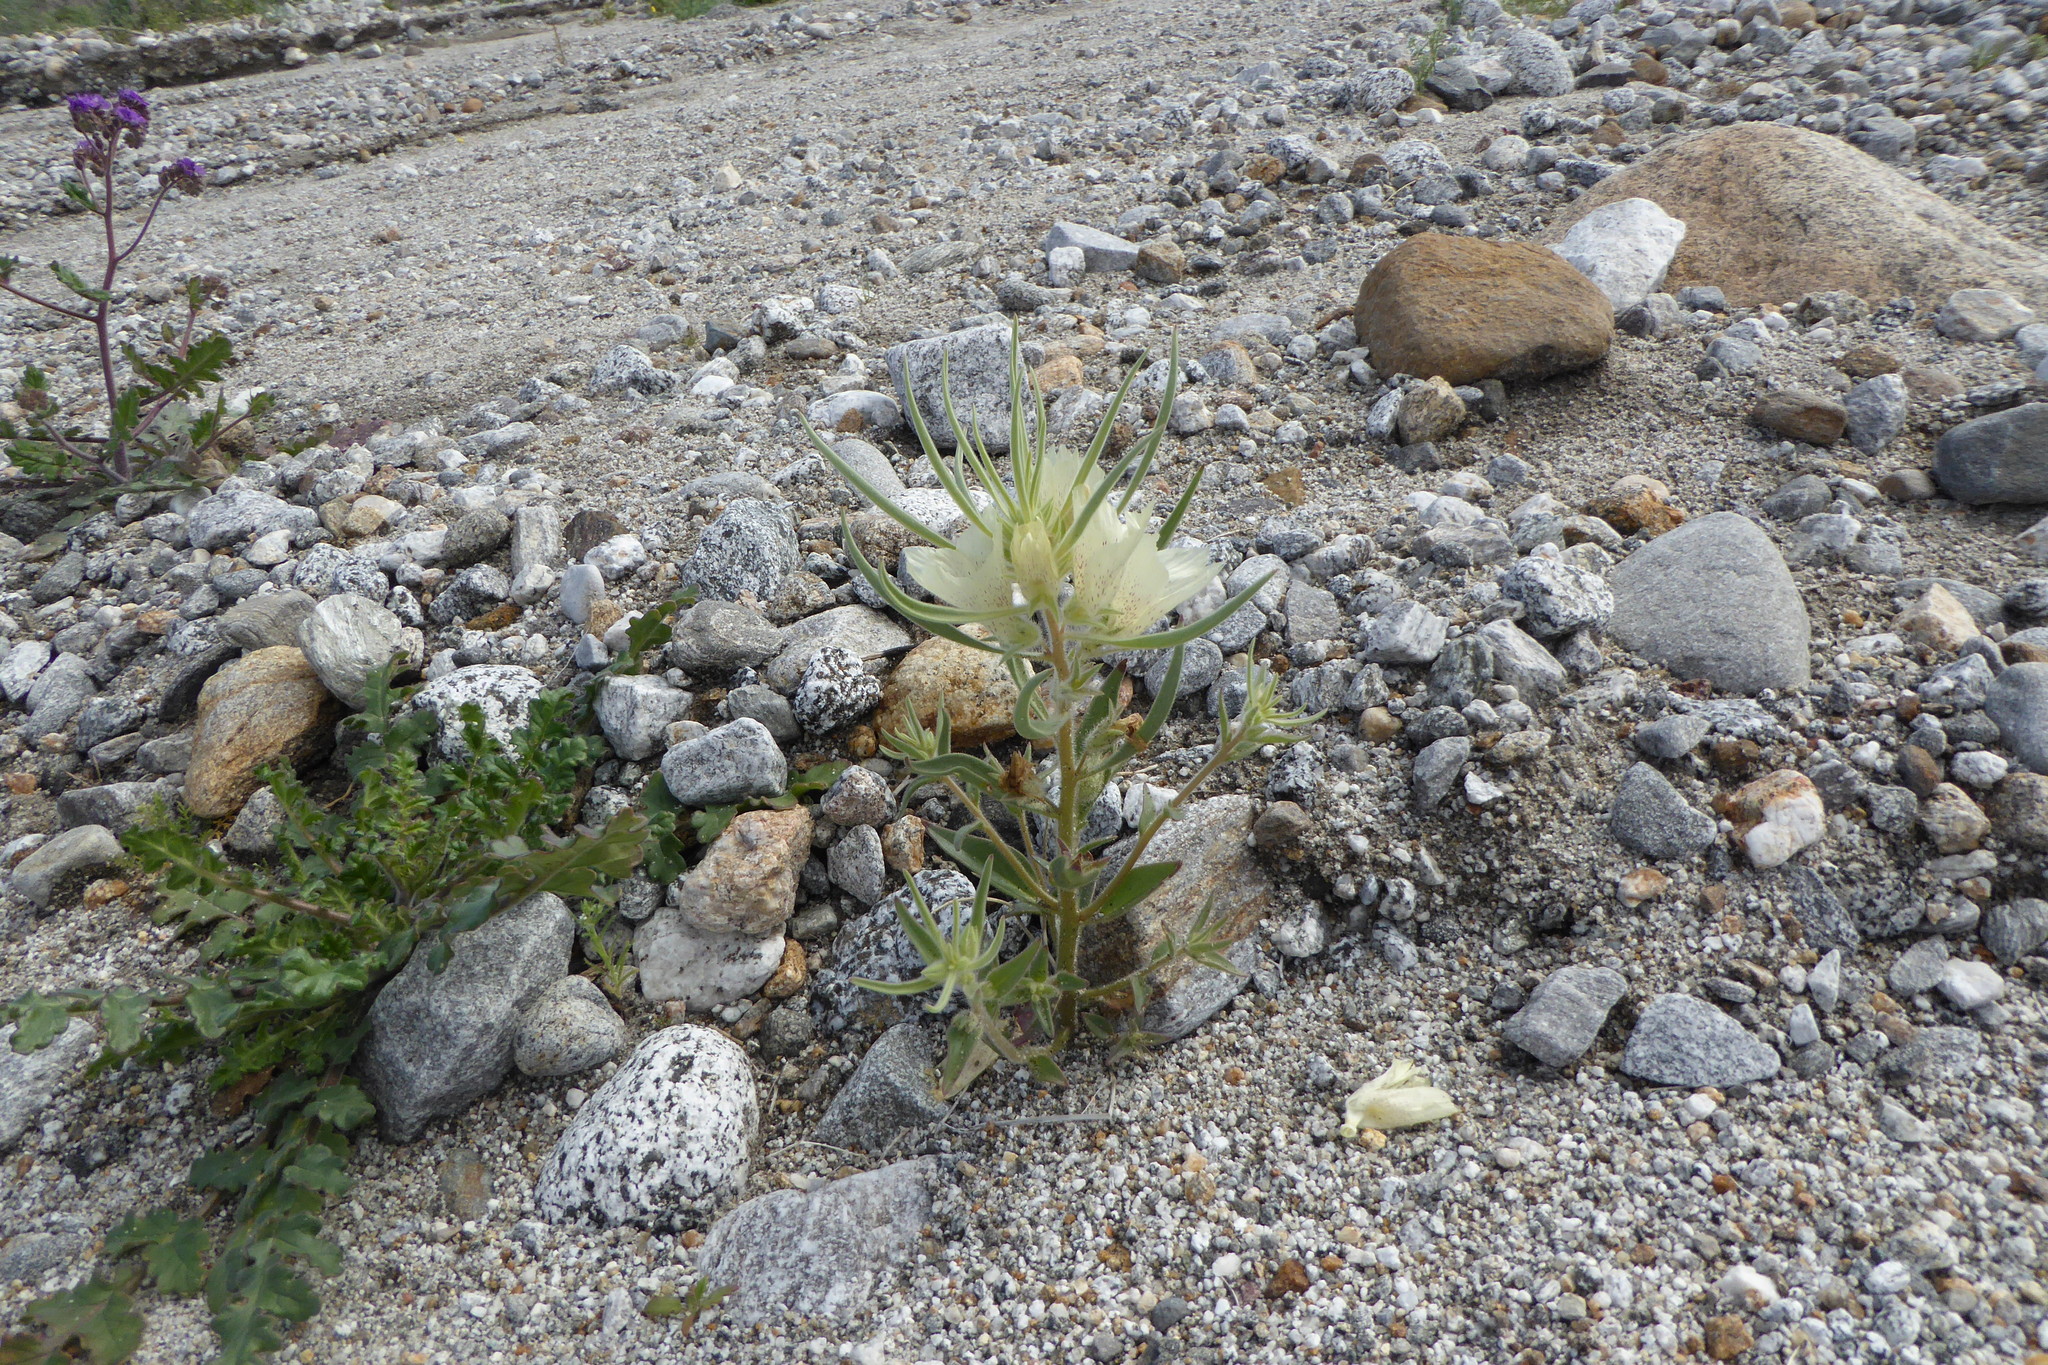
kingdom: Plantae
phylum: Tracheophyta
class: Magnoliopsida
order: Lamiales
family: Plantaginaceae
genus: Mohavea
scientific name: Mohavea confertiflora
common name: Ghost flower
